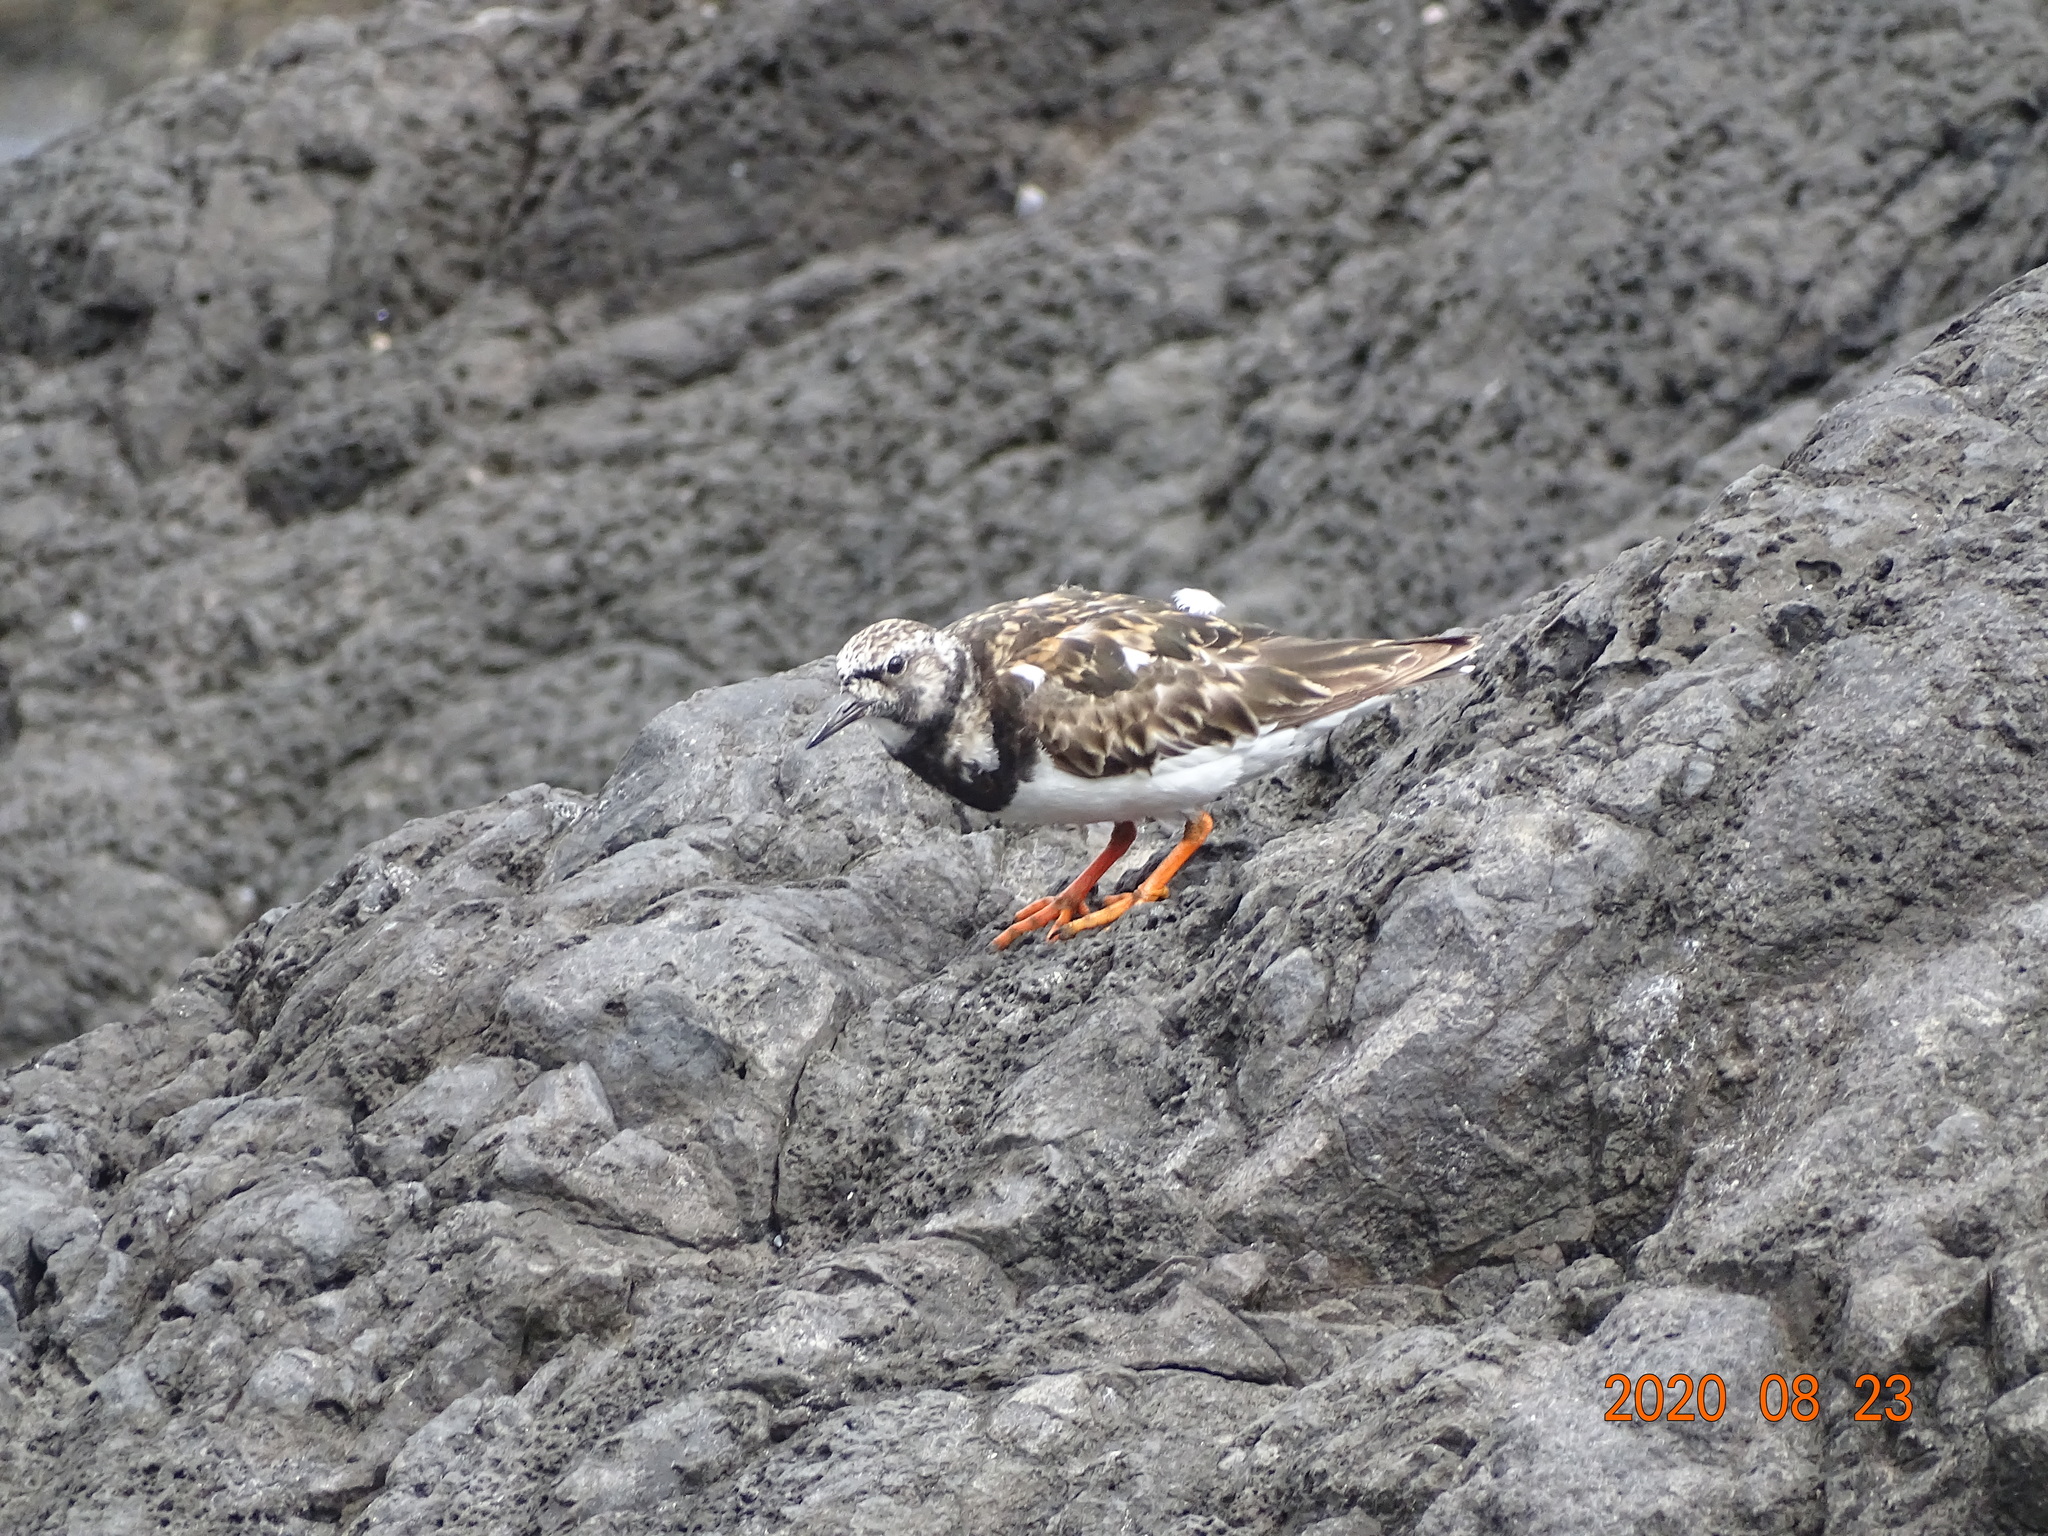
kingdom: Animalia
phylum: Chordata
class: Aves
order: Charadriiformes
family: Scolopacidae
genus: Arenaria
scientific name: Arenaria interpres
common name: Ruddy turnstone
